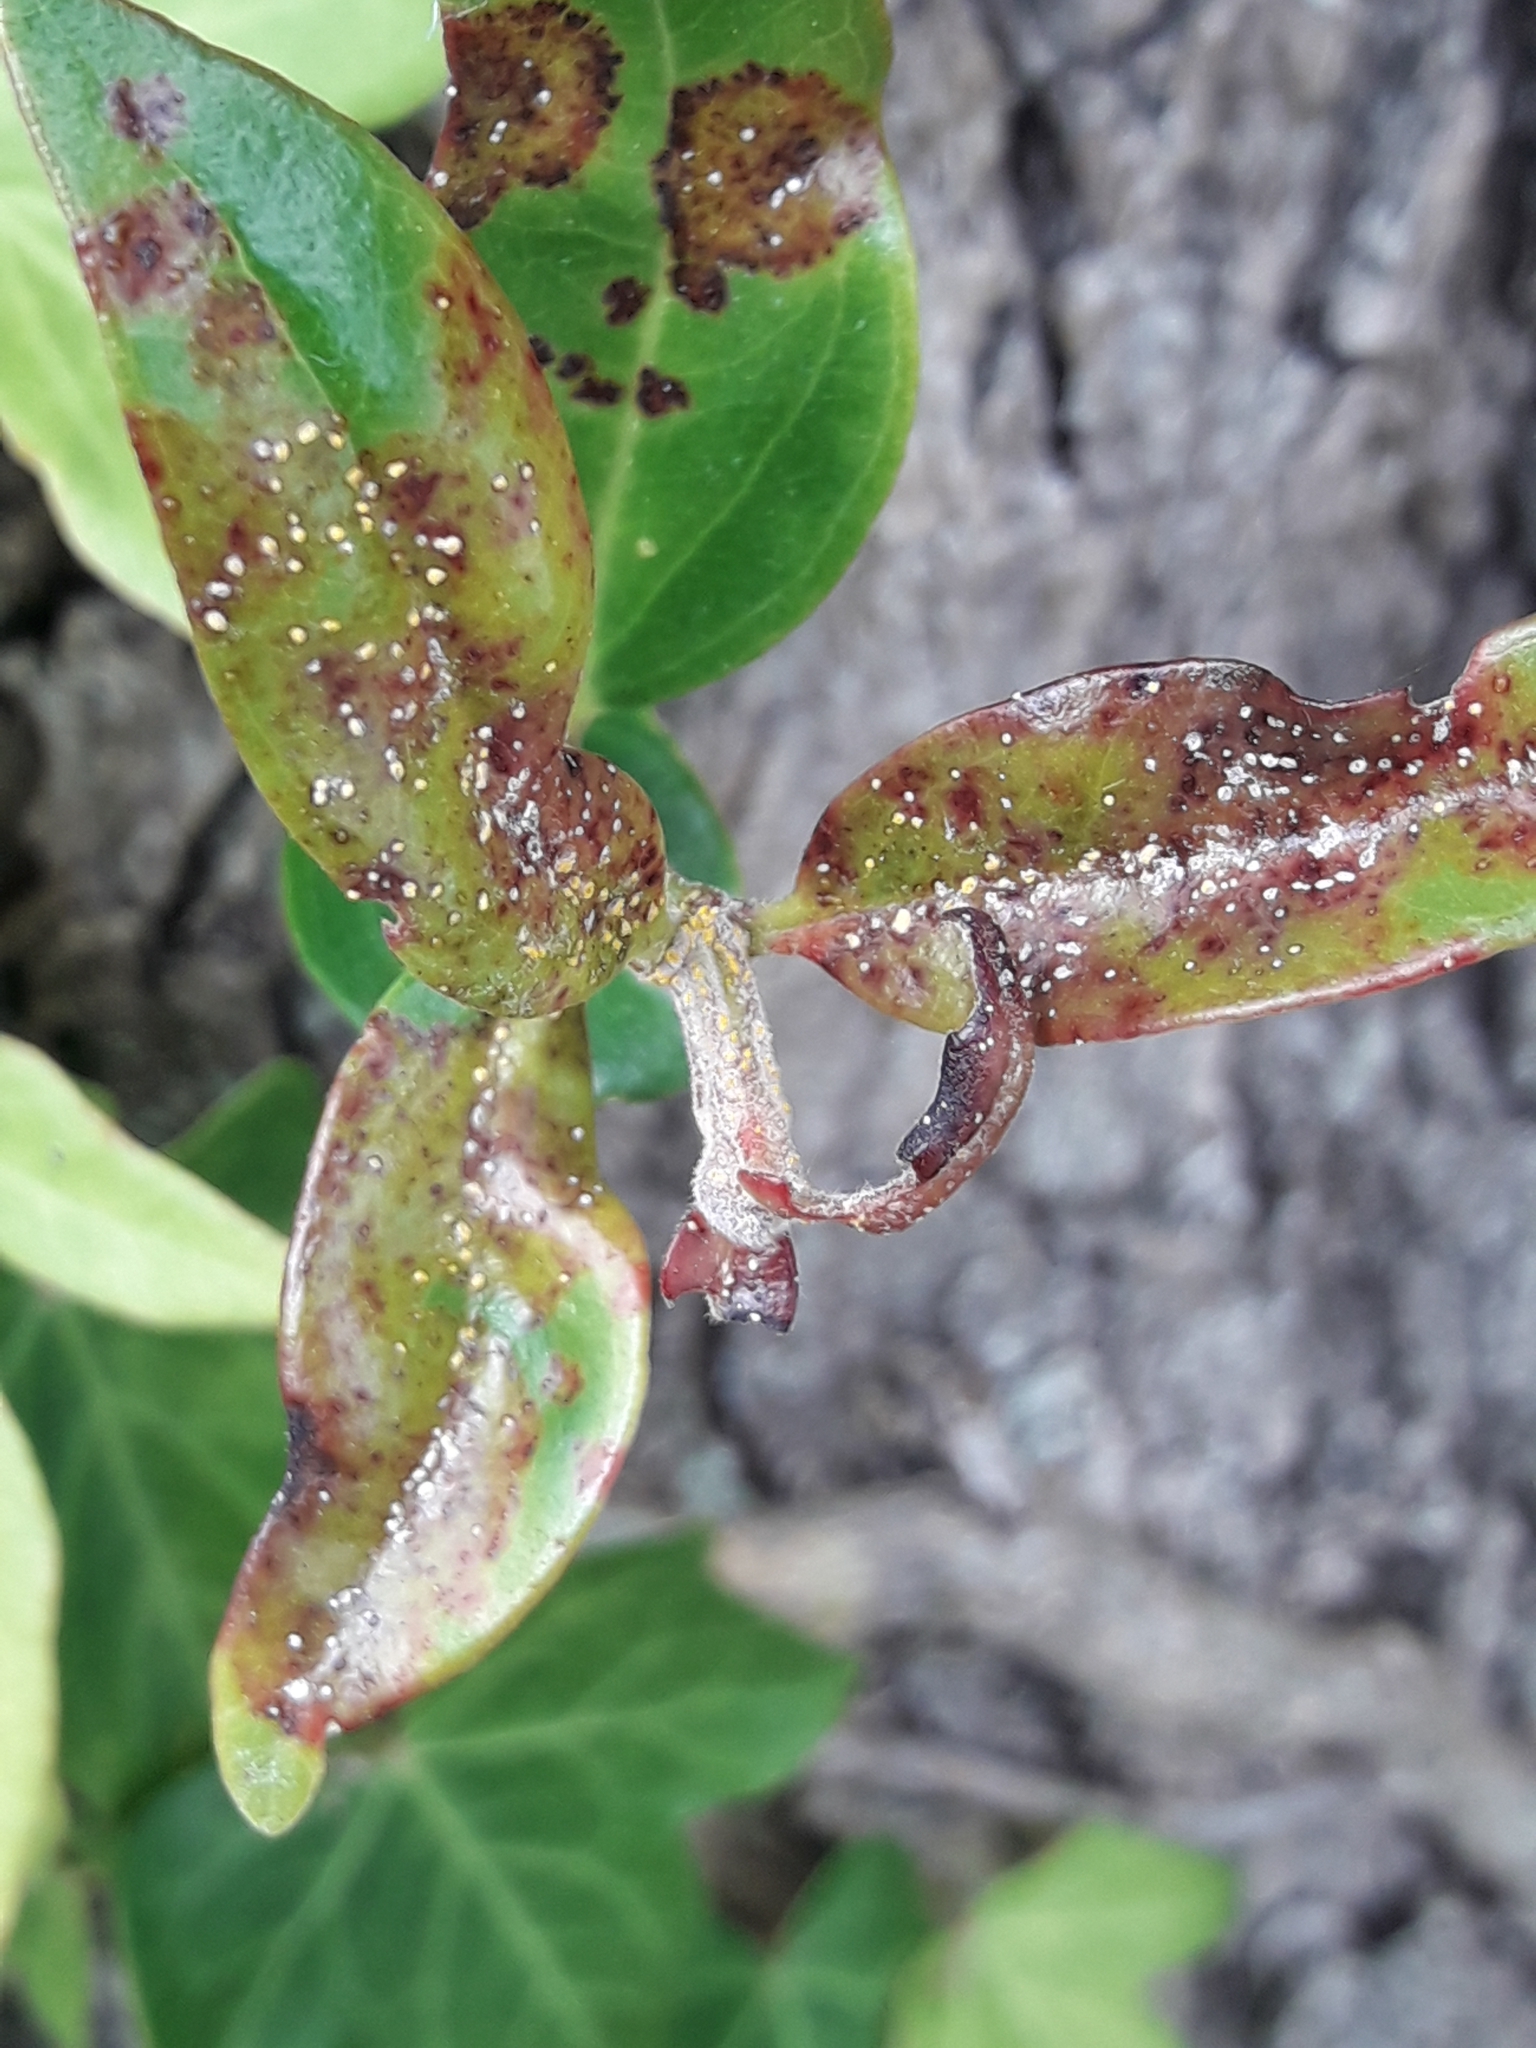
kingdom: Fungi
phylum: Basidiomycota
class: Pucciniomycetes
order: Pucciniales
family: Sphaerophragmiaceae
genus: Austropuccinia
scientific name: Austropuccinia psidii
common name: Myrtle rust
